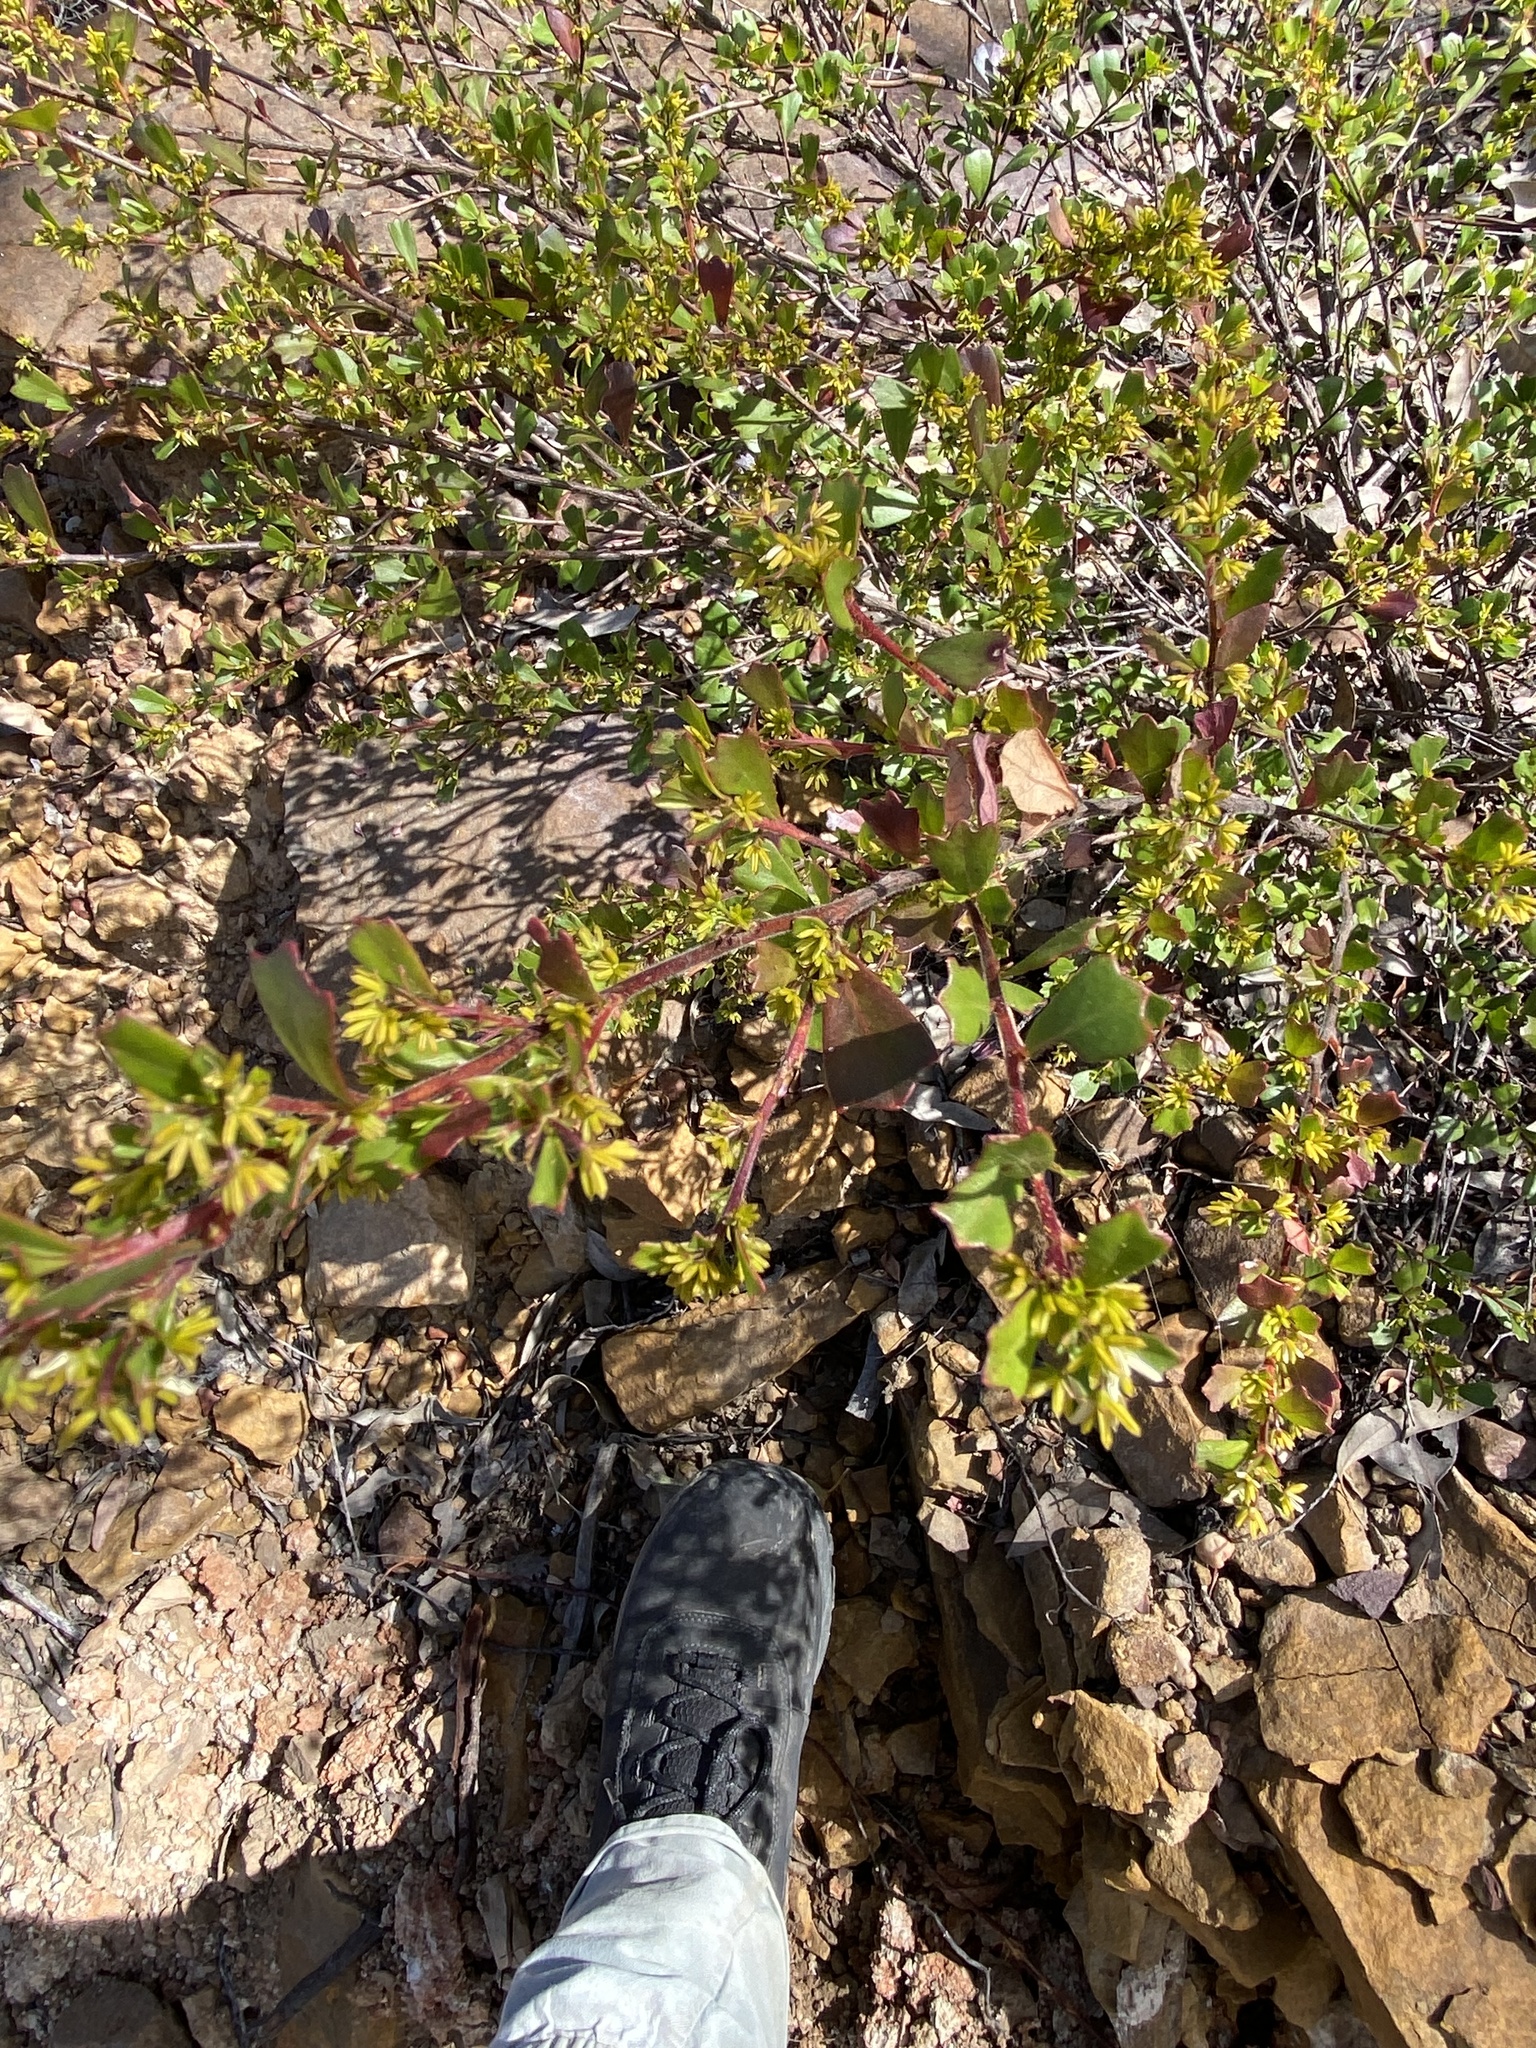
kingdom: Plantae
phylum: Tracheophyta
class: Magnoliopsida
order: Sapindales
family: Sapindaceae
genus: Dodonaea
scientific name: Dodonaea triangularis
